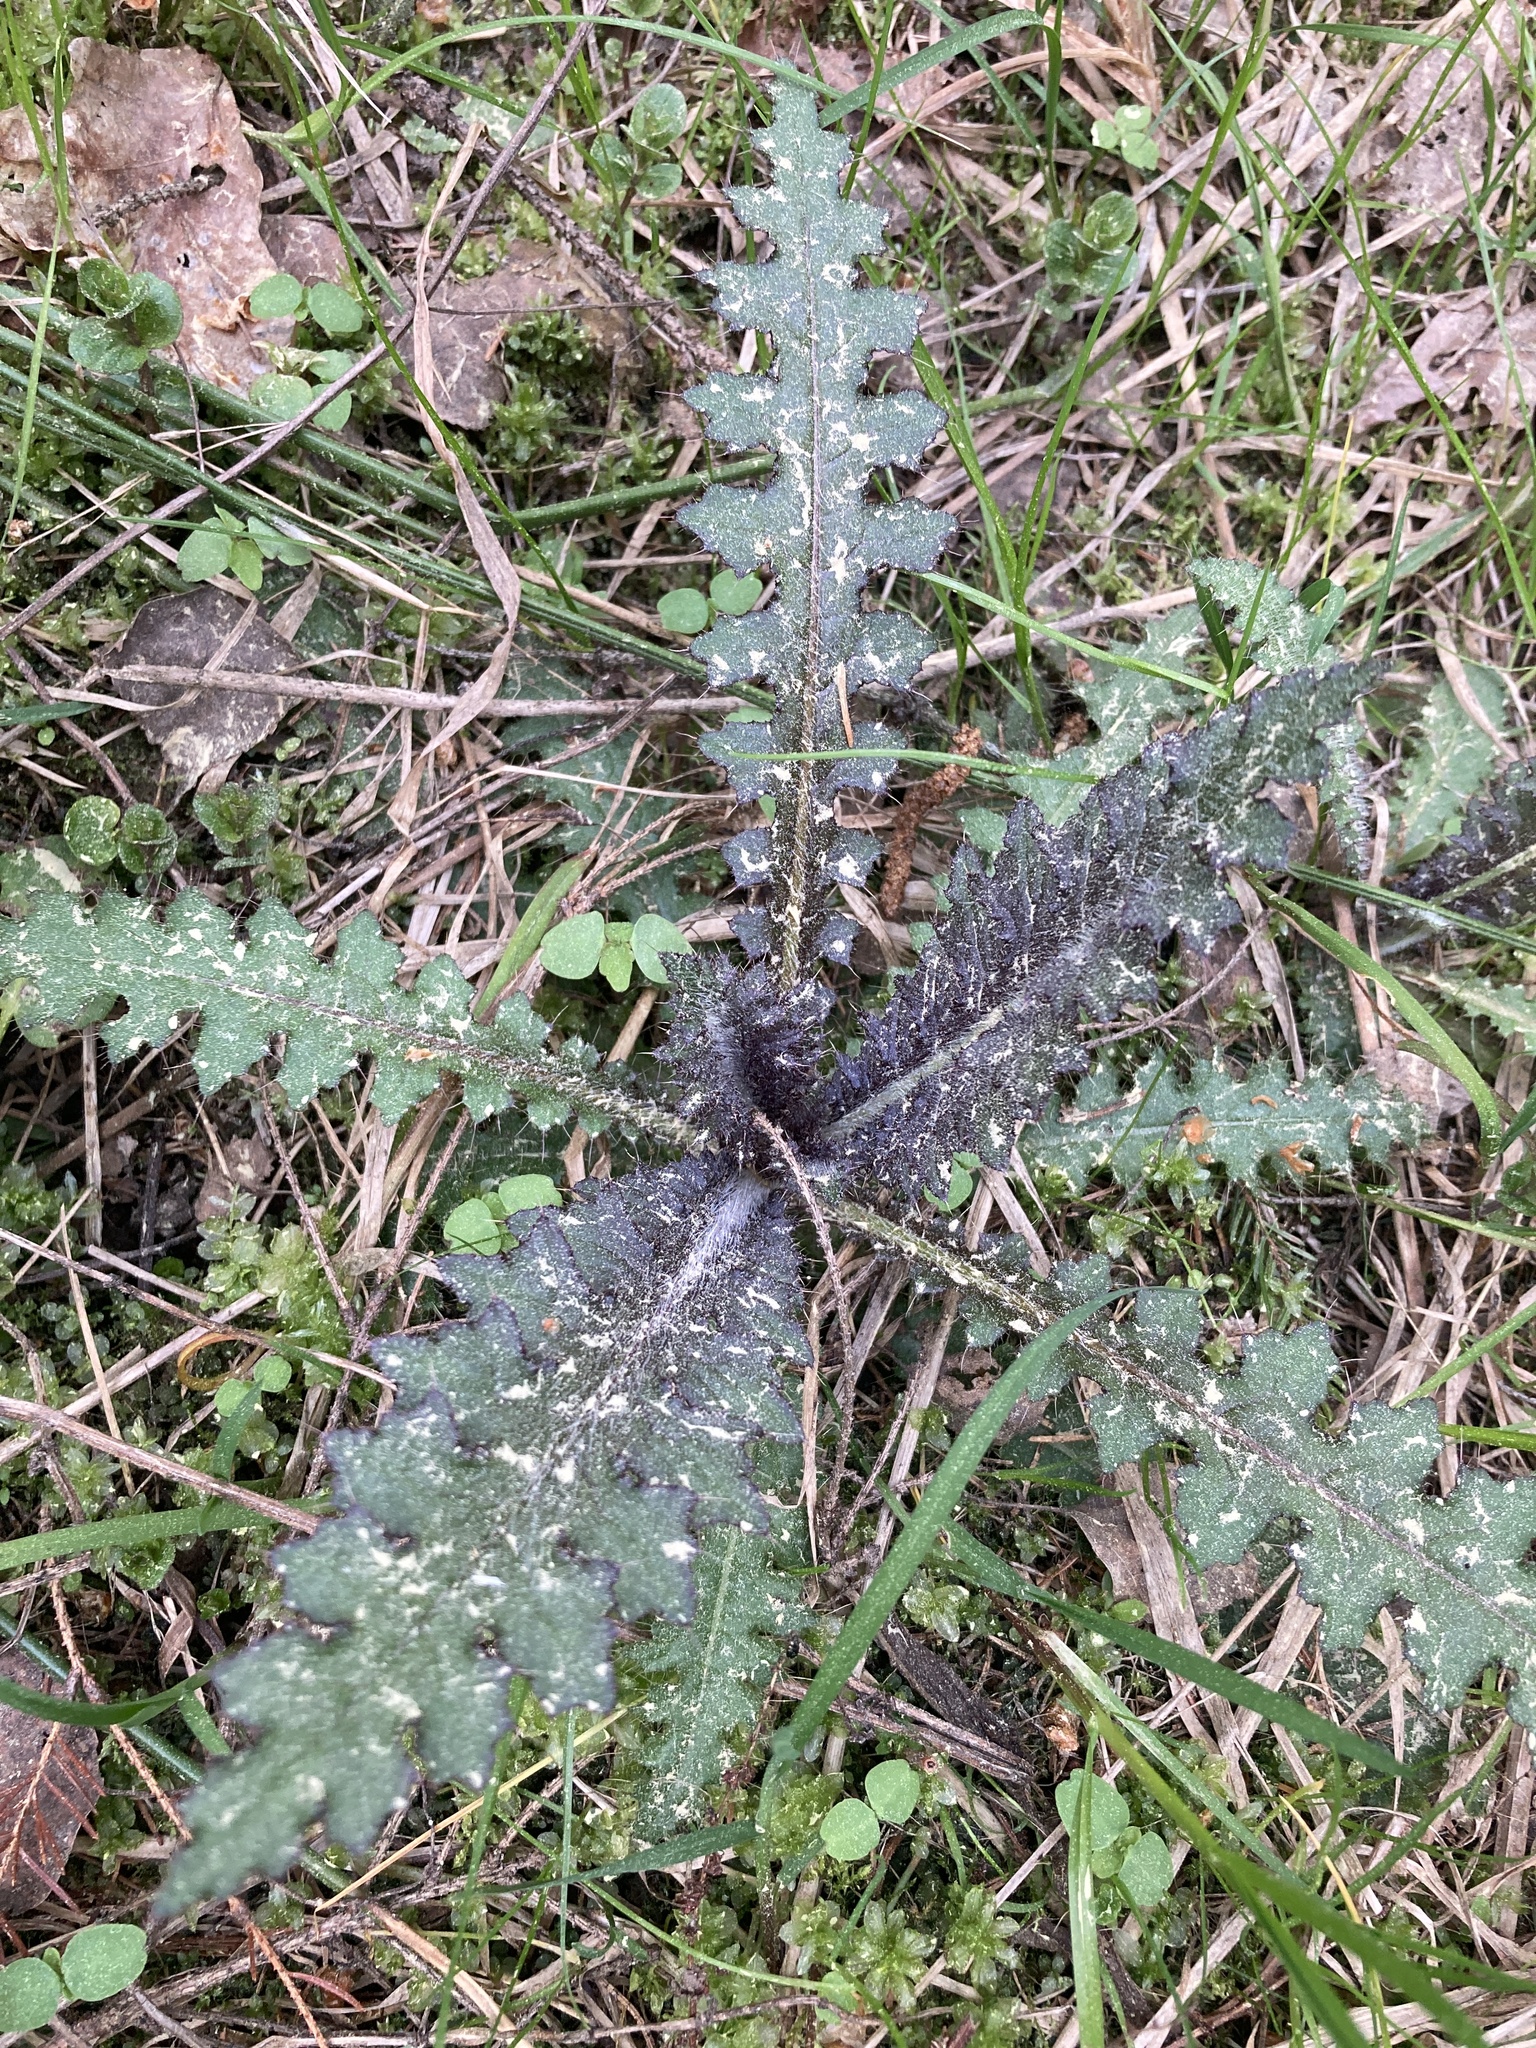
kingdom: Plantae
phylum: Tracheophyta
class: Magnoliopsida
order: Asterales
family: Asteraceae
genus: Cirsium
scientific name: Cirsium palustre
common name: Marsh thistle
